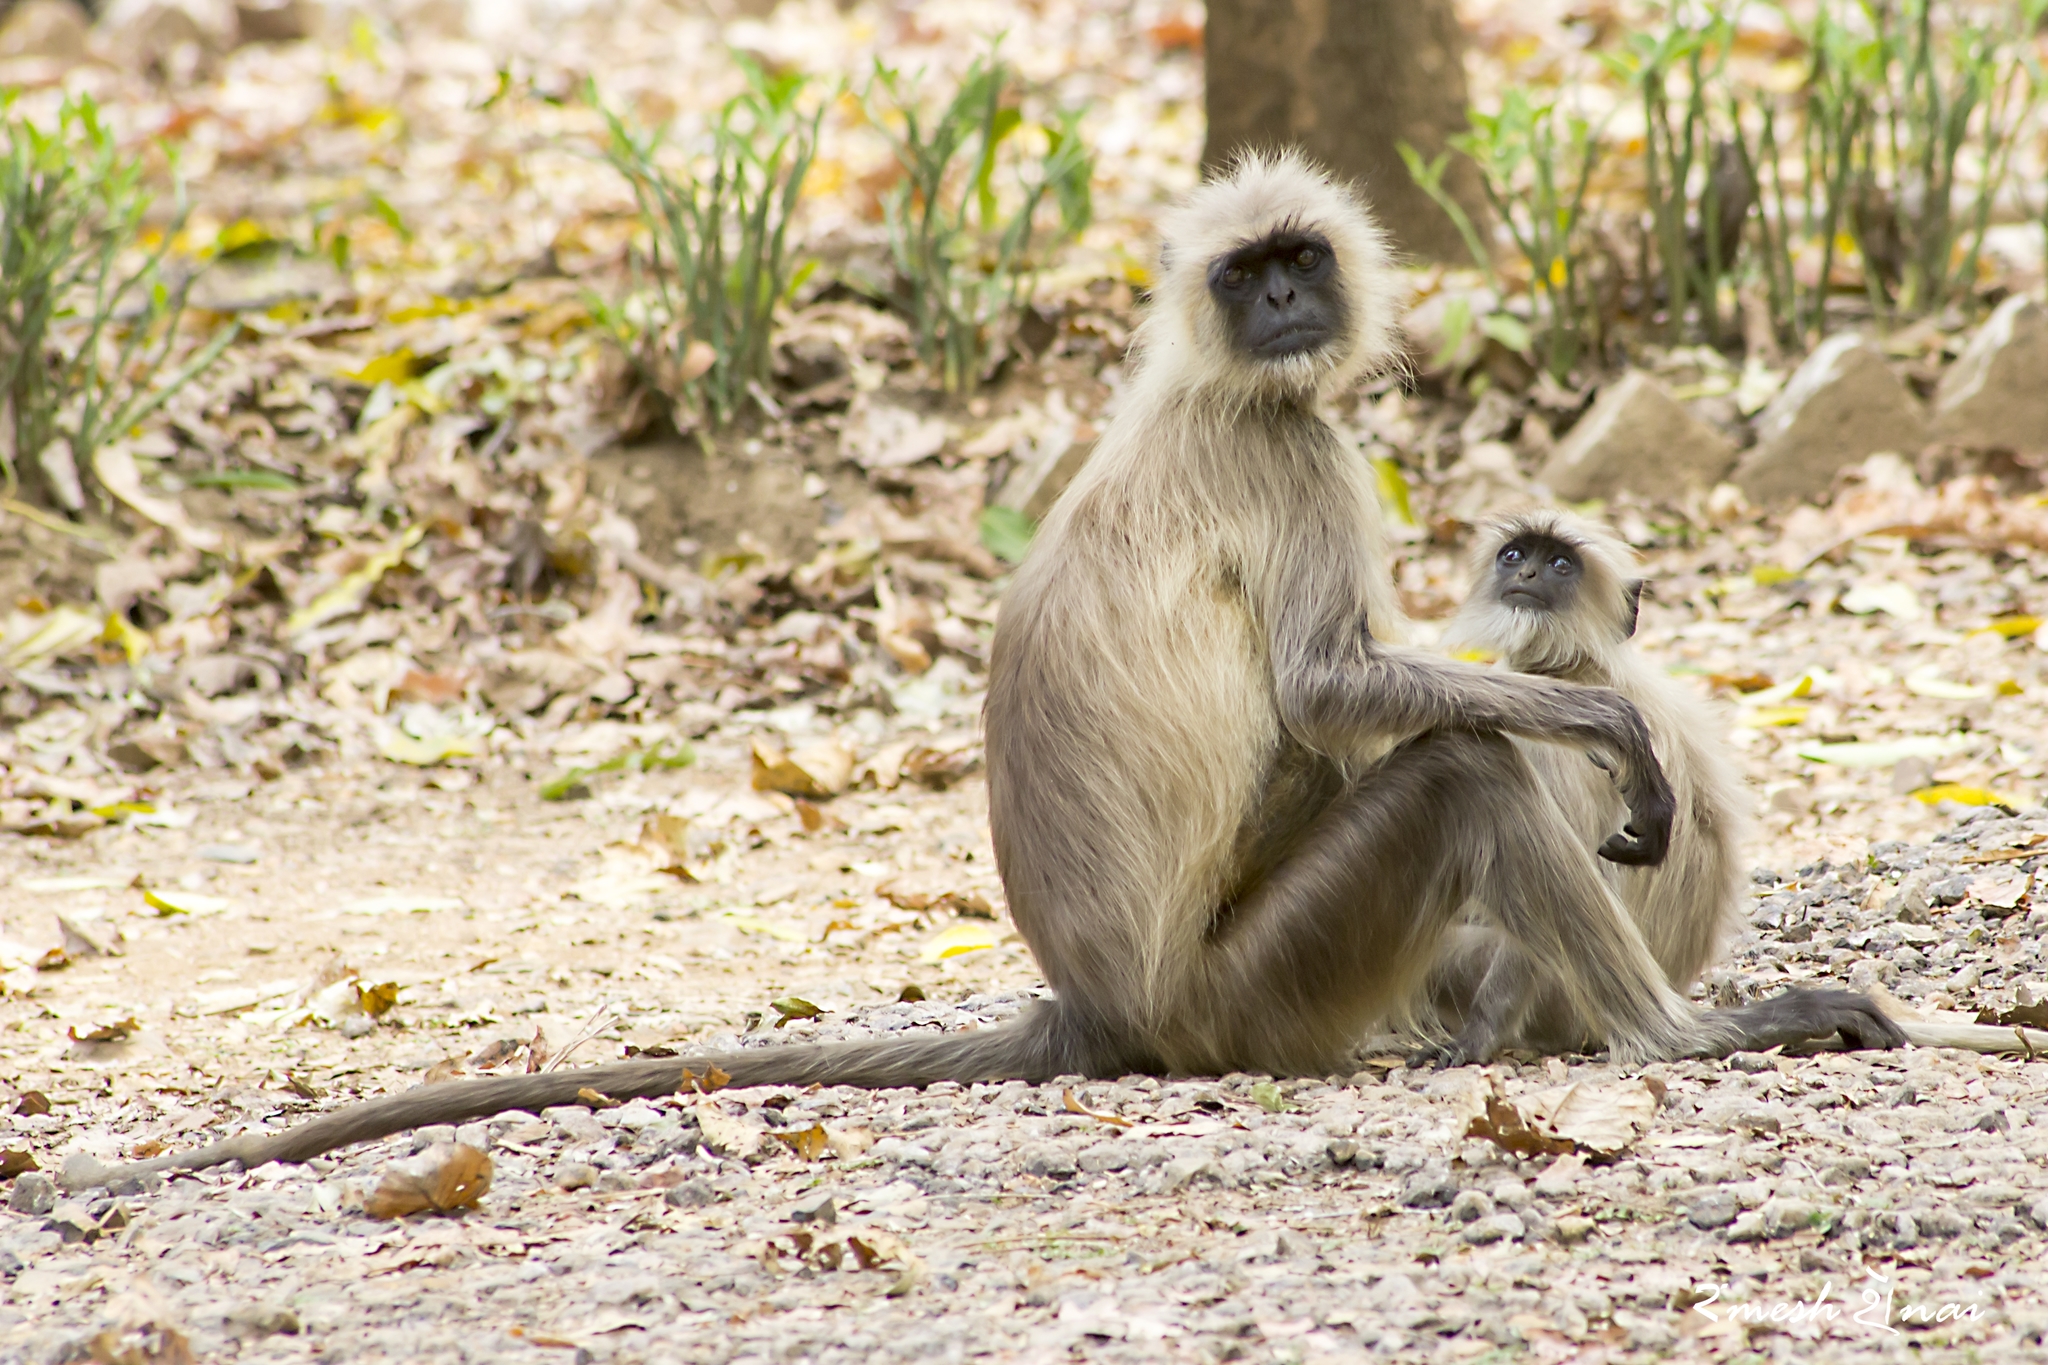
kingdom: Animalia
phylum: Chordata
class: Mammalia
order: Primates
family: Cercopithecidae
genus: Semnopithecus
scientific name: Semnopithecus entellus
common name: Northern plains gray langur
